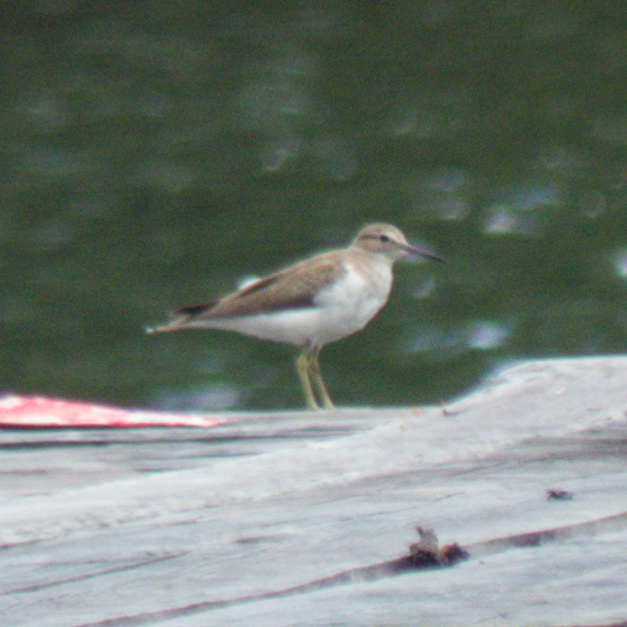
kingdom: Animalia
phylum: Chordata
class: Aves
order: Charadriiformes
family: Scolopacidae
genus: Actitis
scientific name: Actitis hypoleucos
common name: Common sandpiper
